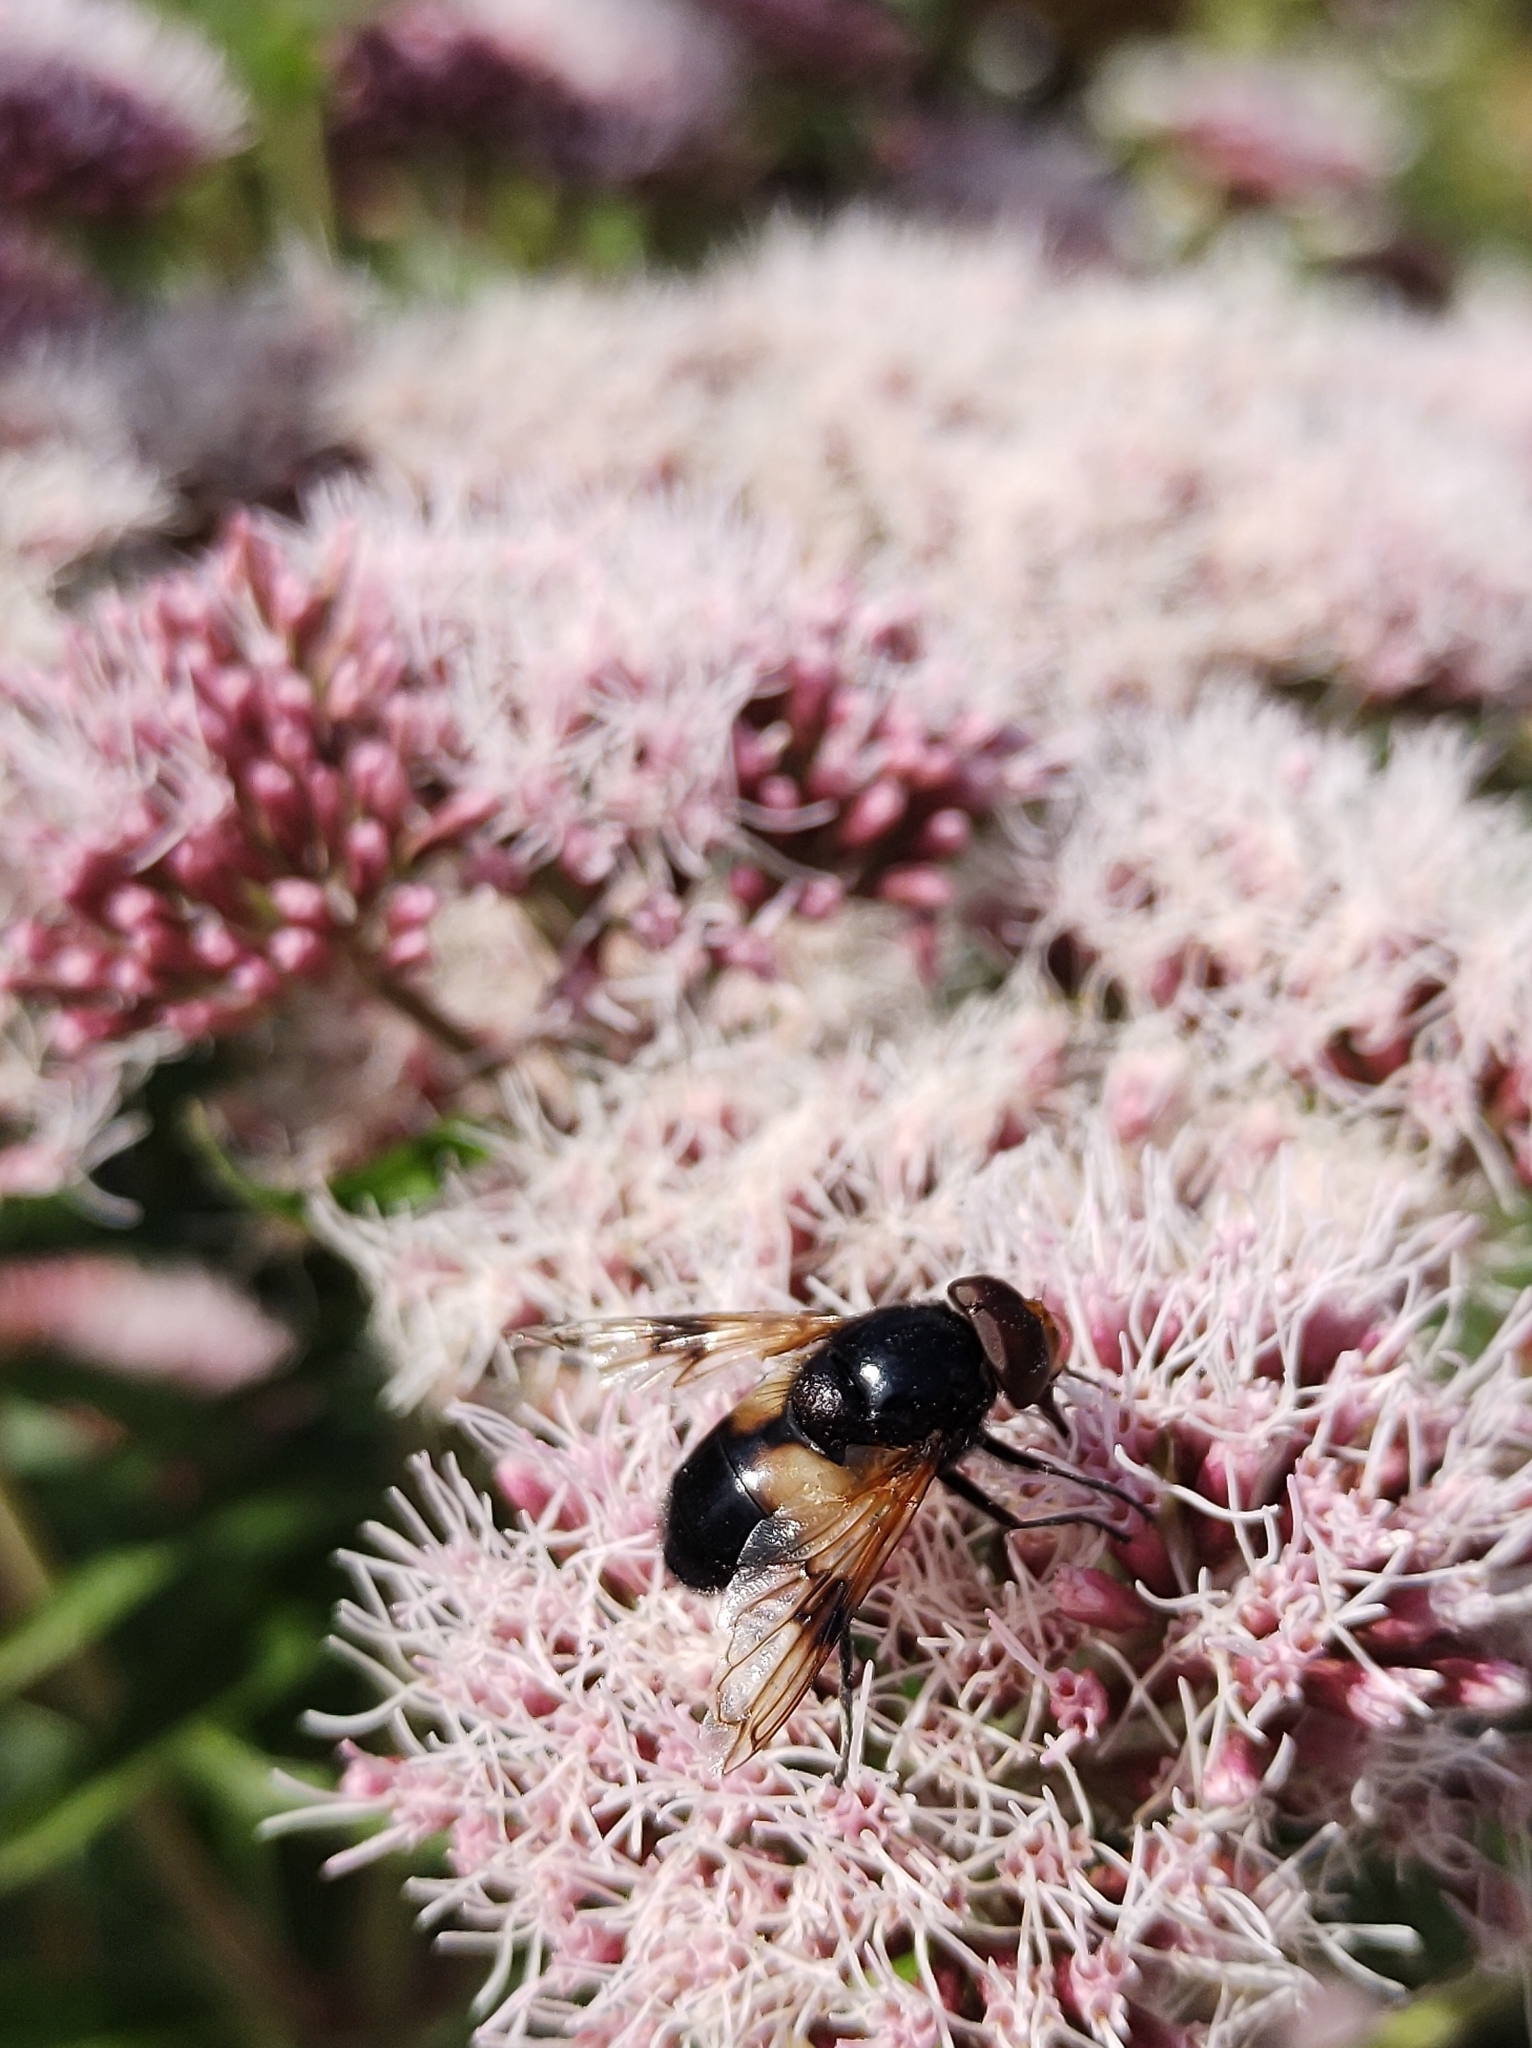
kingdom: Animalia
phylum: Arthropoda
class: Insecta
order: Diptera
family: Syrphidae
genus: Volucella
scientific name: Volucella pellucens
